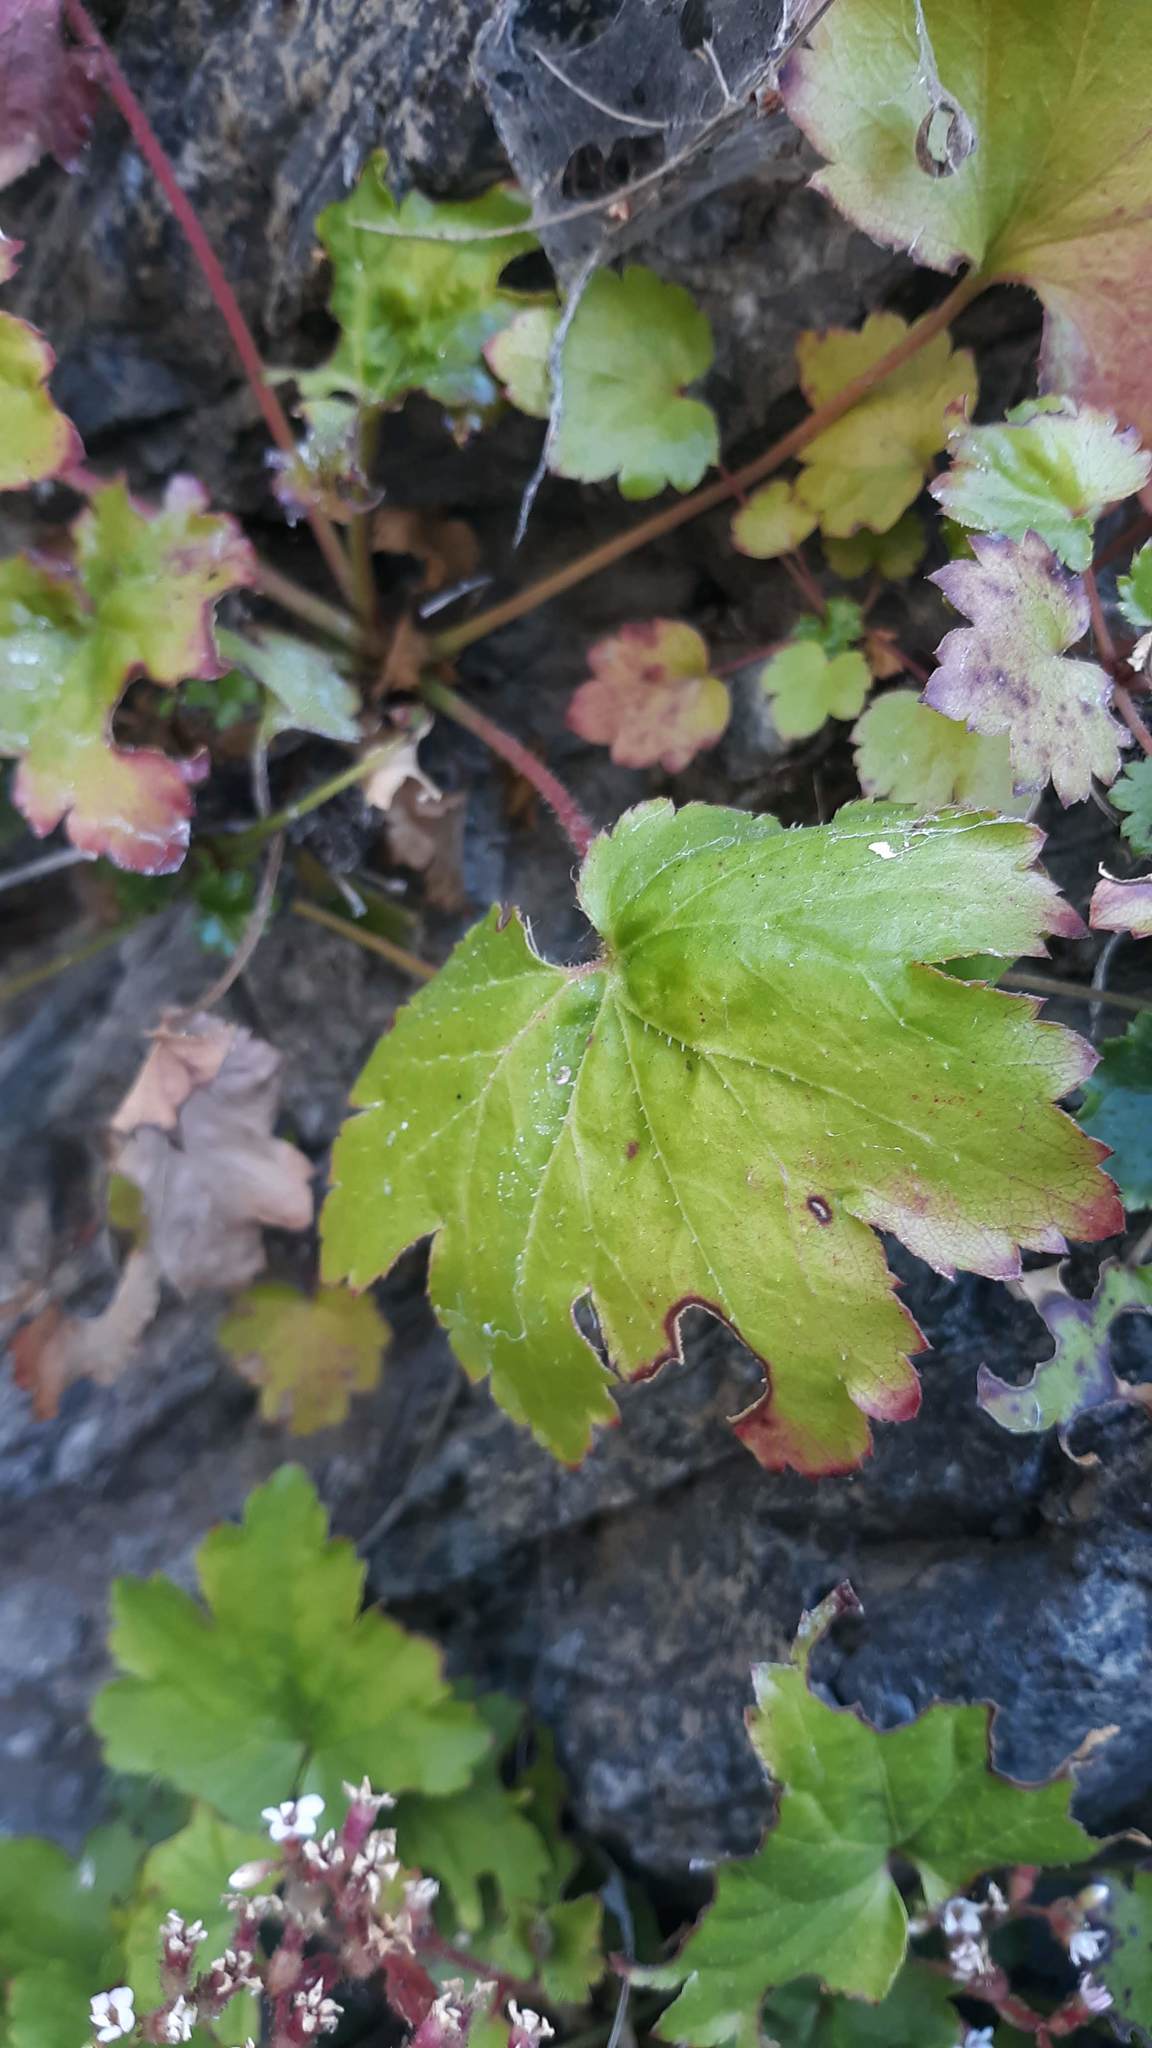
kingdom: Plantae
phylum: Tracheophyta
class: Magnoliopsida
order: Saxifragales
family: Saxifragaceae
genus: Boykinia
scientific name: Boykinia occidentalis
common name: Coast boykinia
